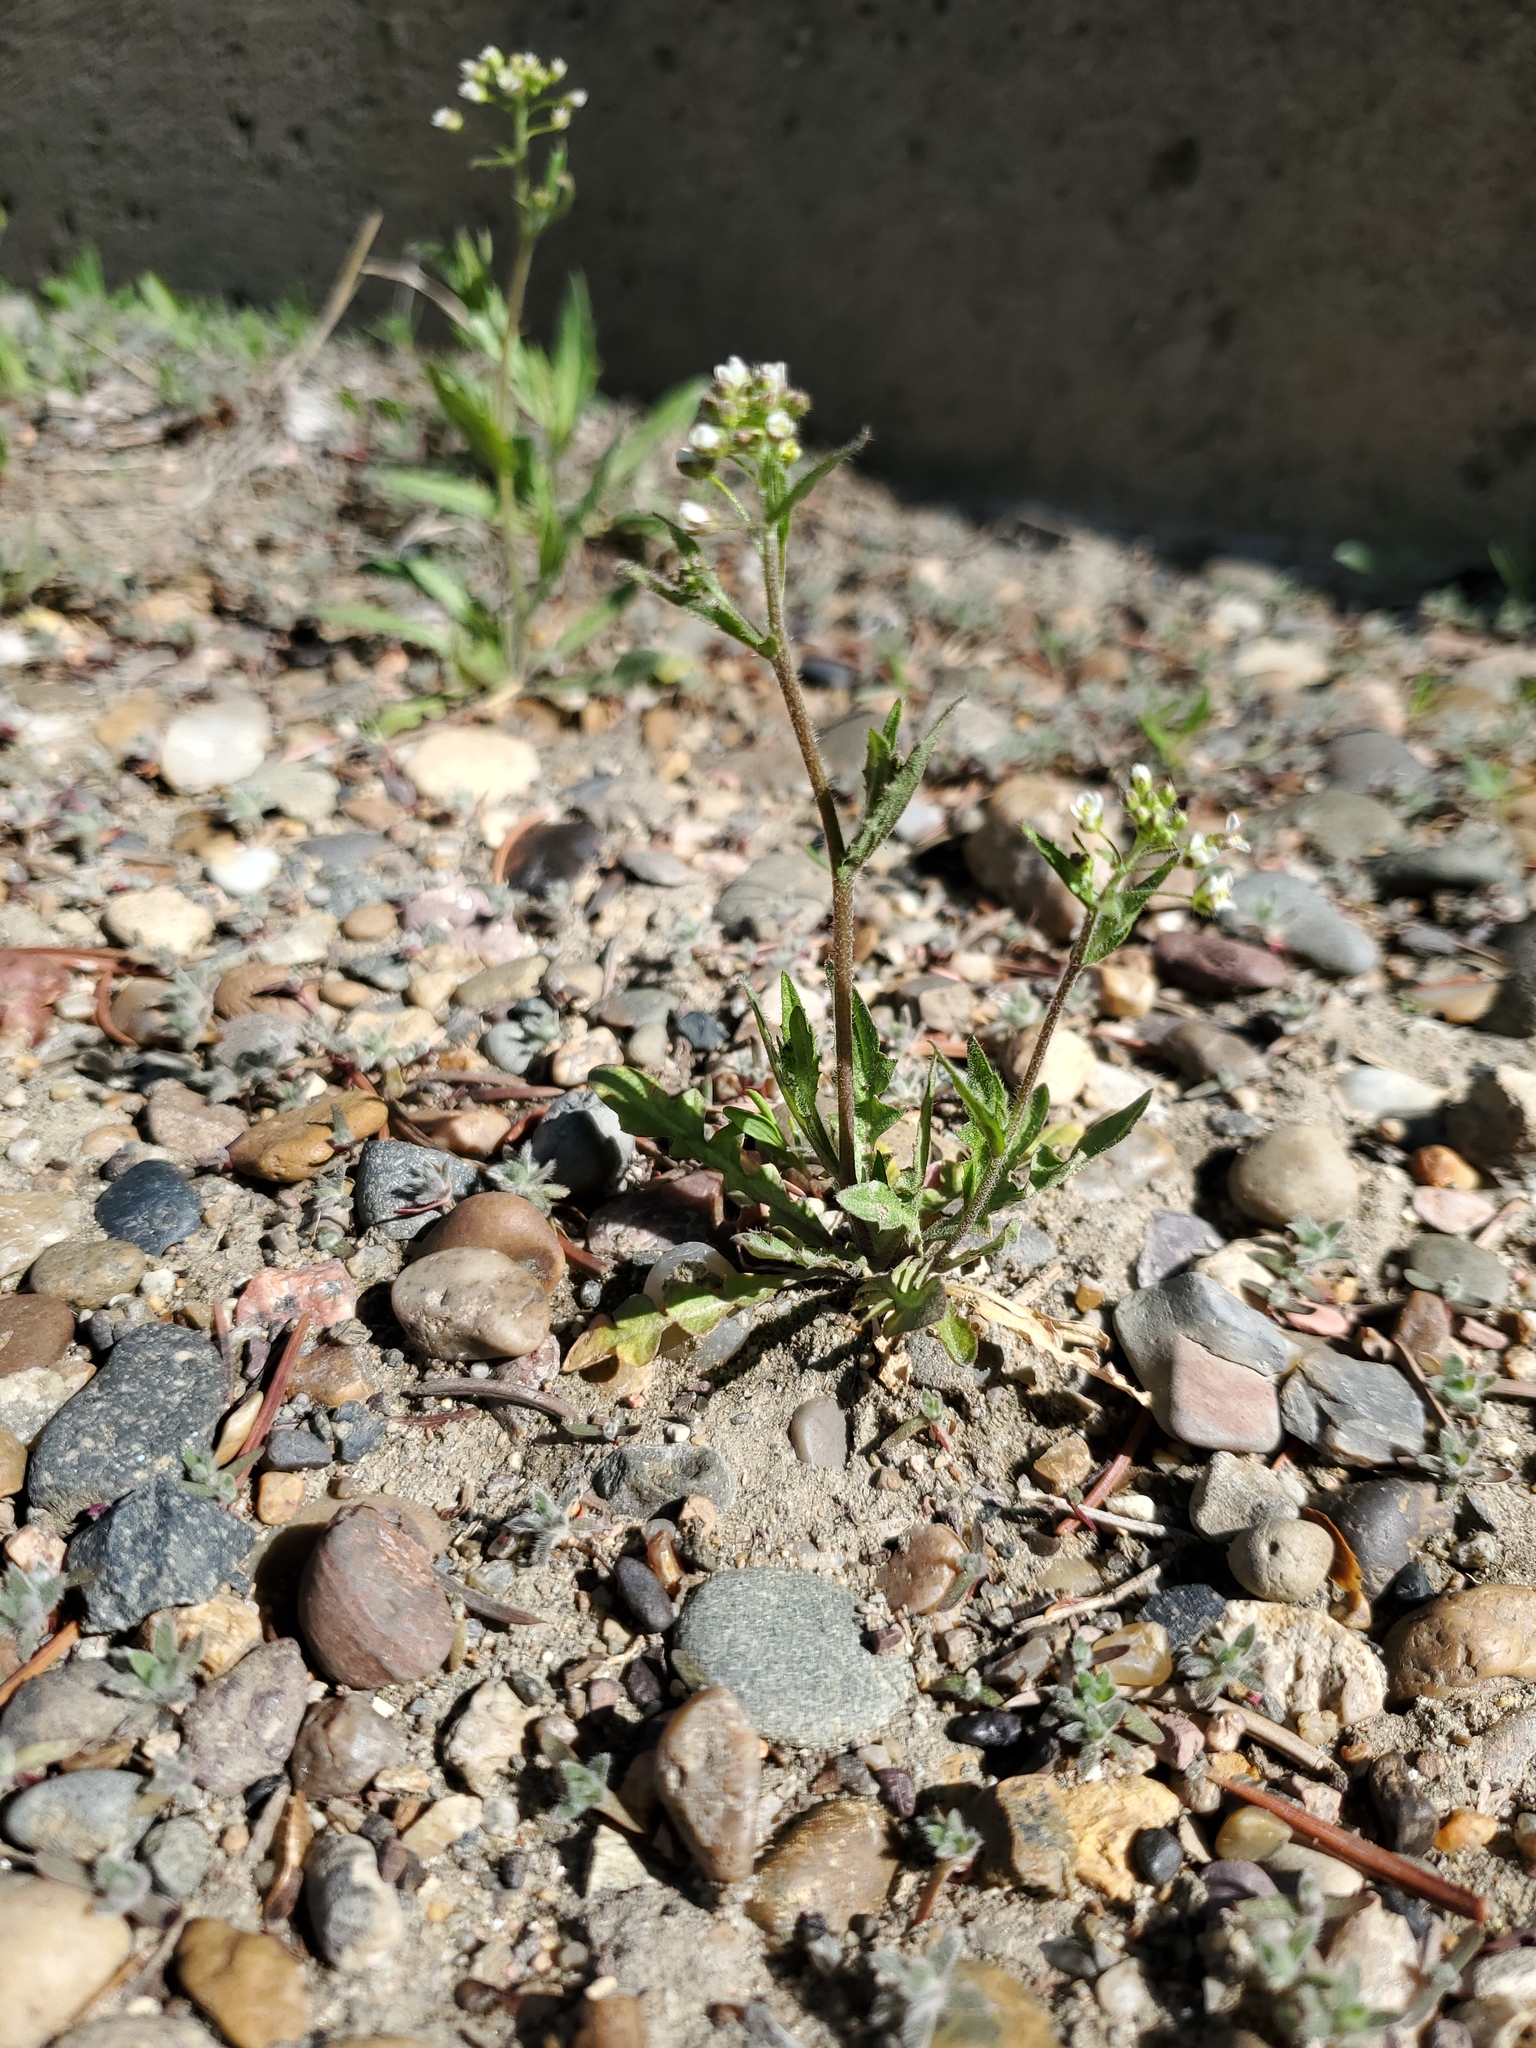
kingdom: Plantae
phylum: Tracheophyta
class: Magnoliopsida
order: Brassicales
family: Brassicaceae
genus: Capsella
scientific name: Capsella bursa-pastoris
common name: Shepherd's purse
